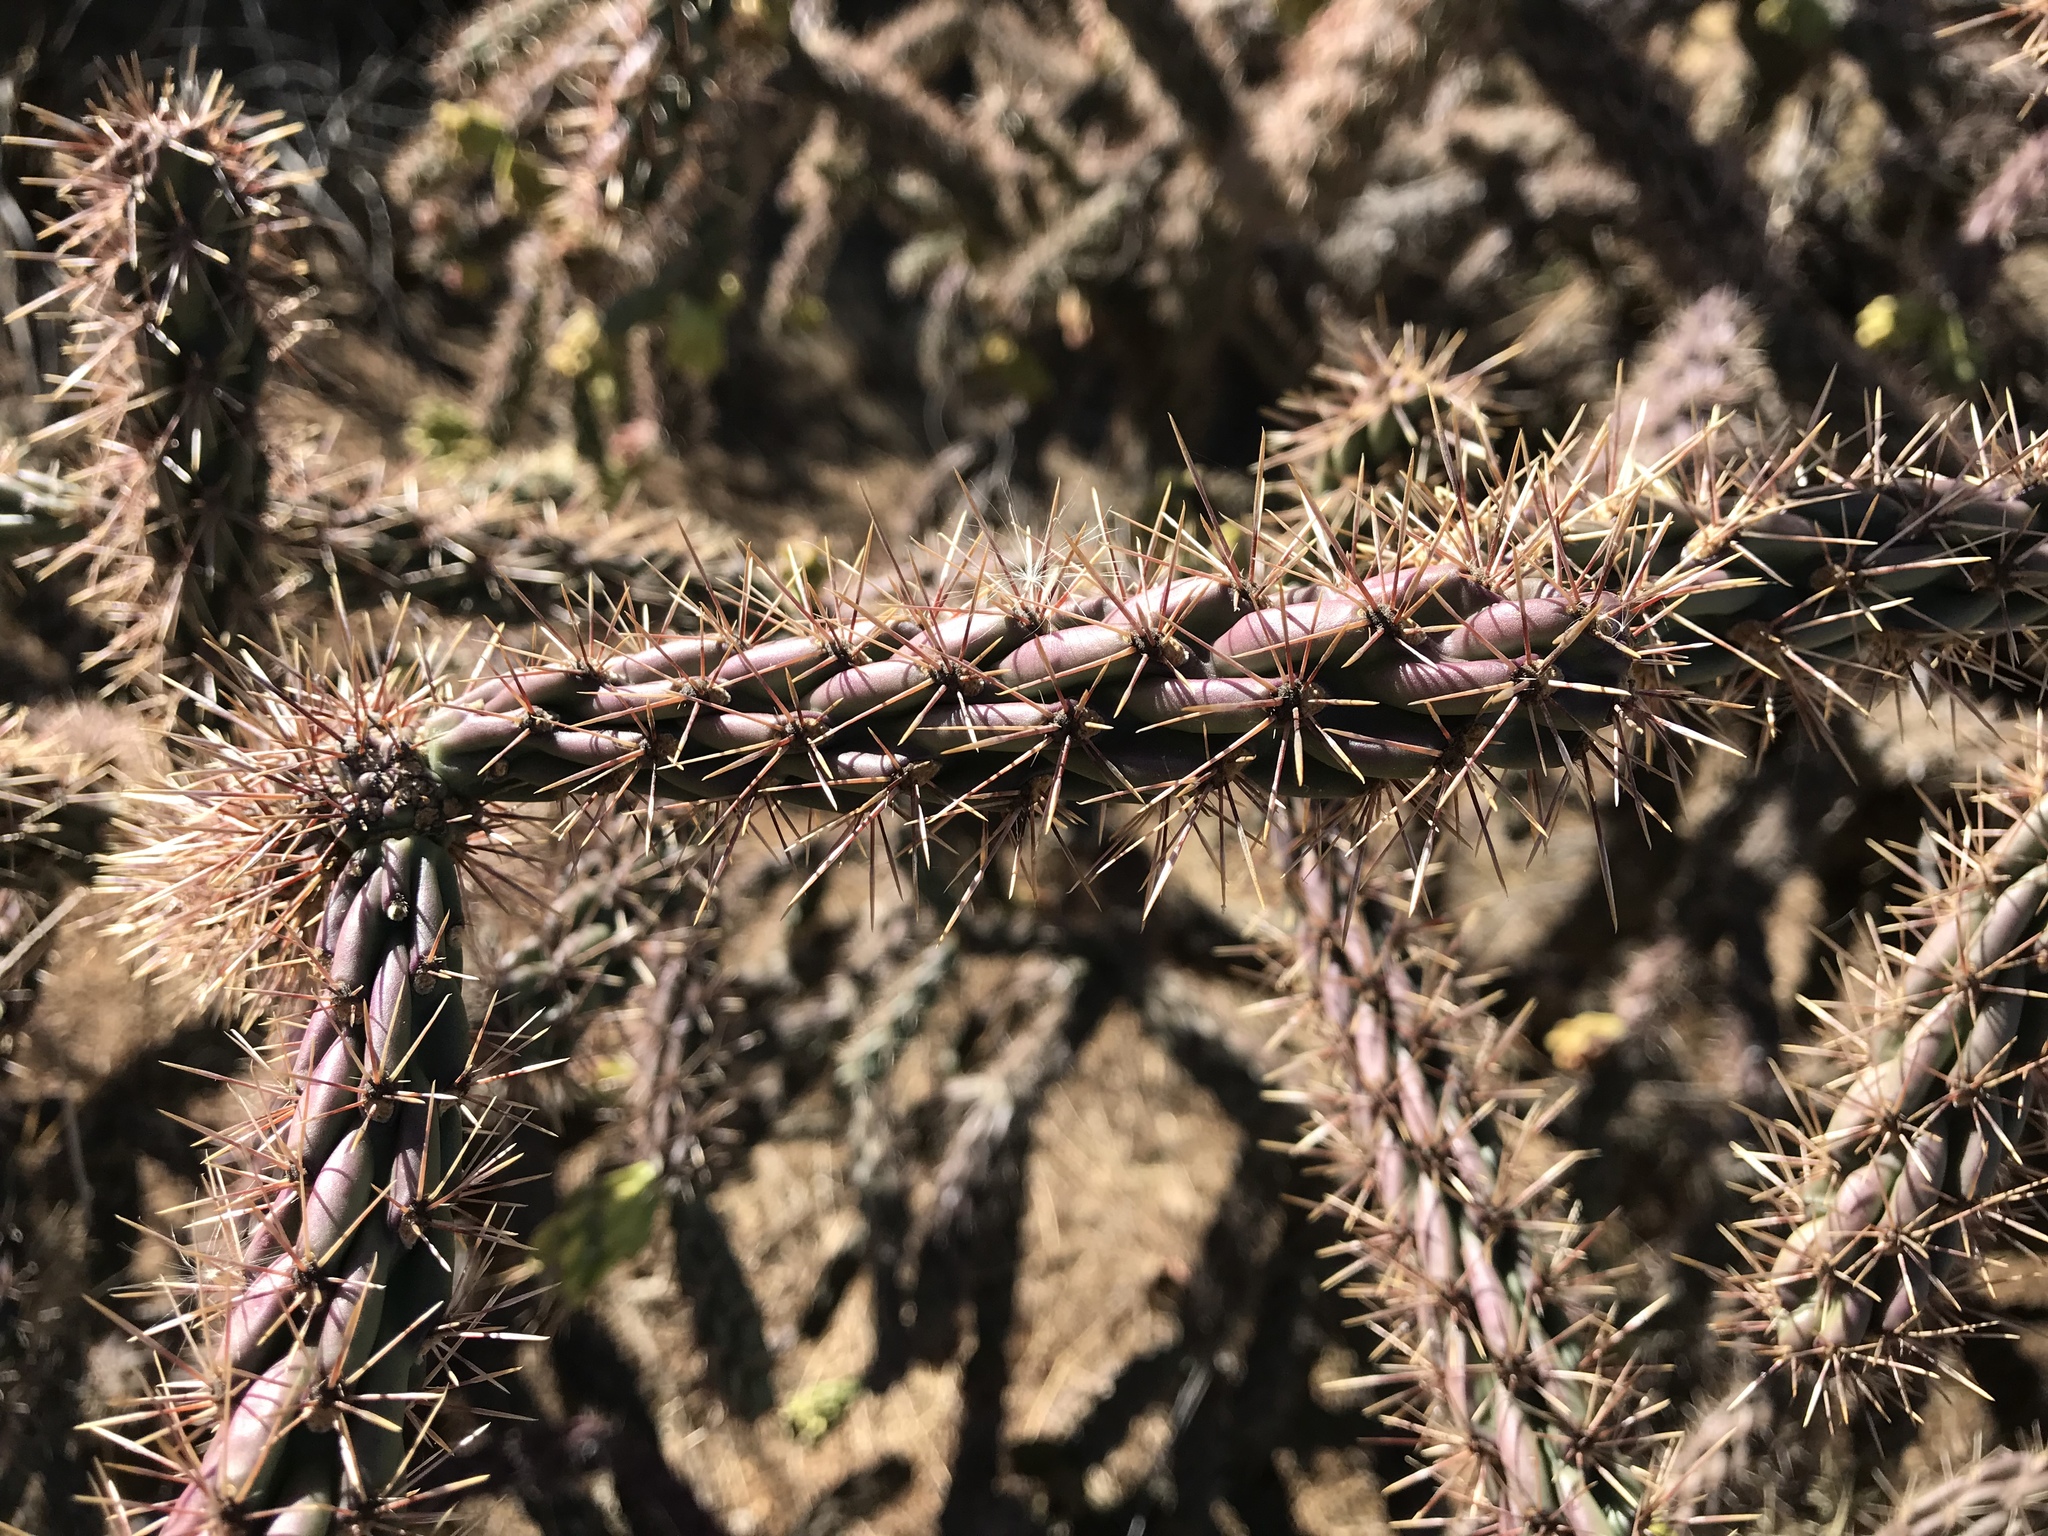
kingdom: Plantae
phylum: Tracheophyta
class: Magnoliopsida
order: Caryophyllales
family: Cactaceae
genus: Cylindropuntia
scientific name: Cylindropuntia imbricata
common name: Candelabrum cactus
